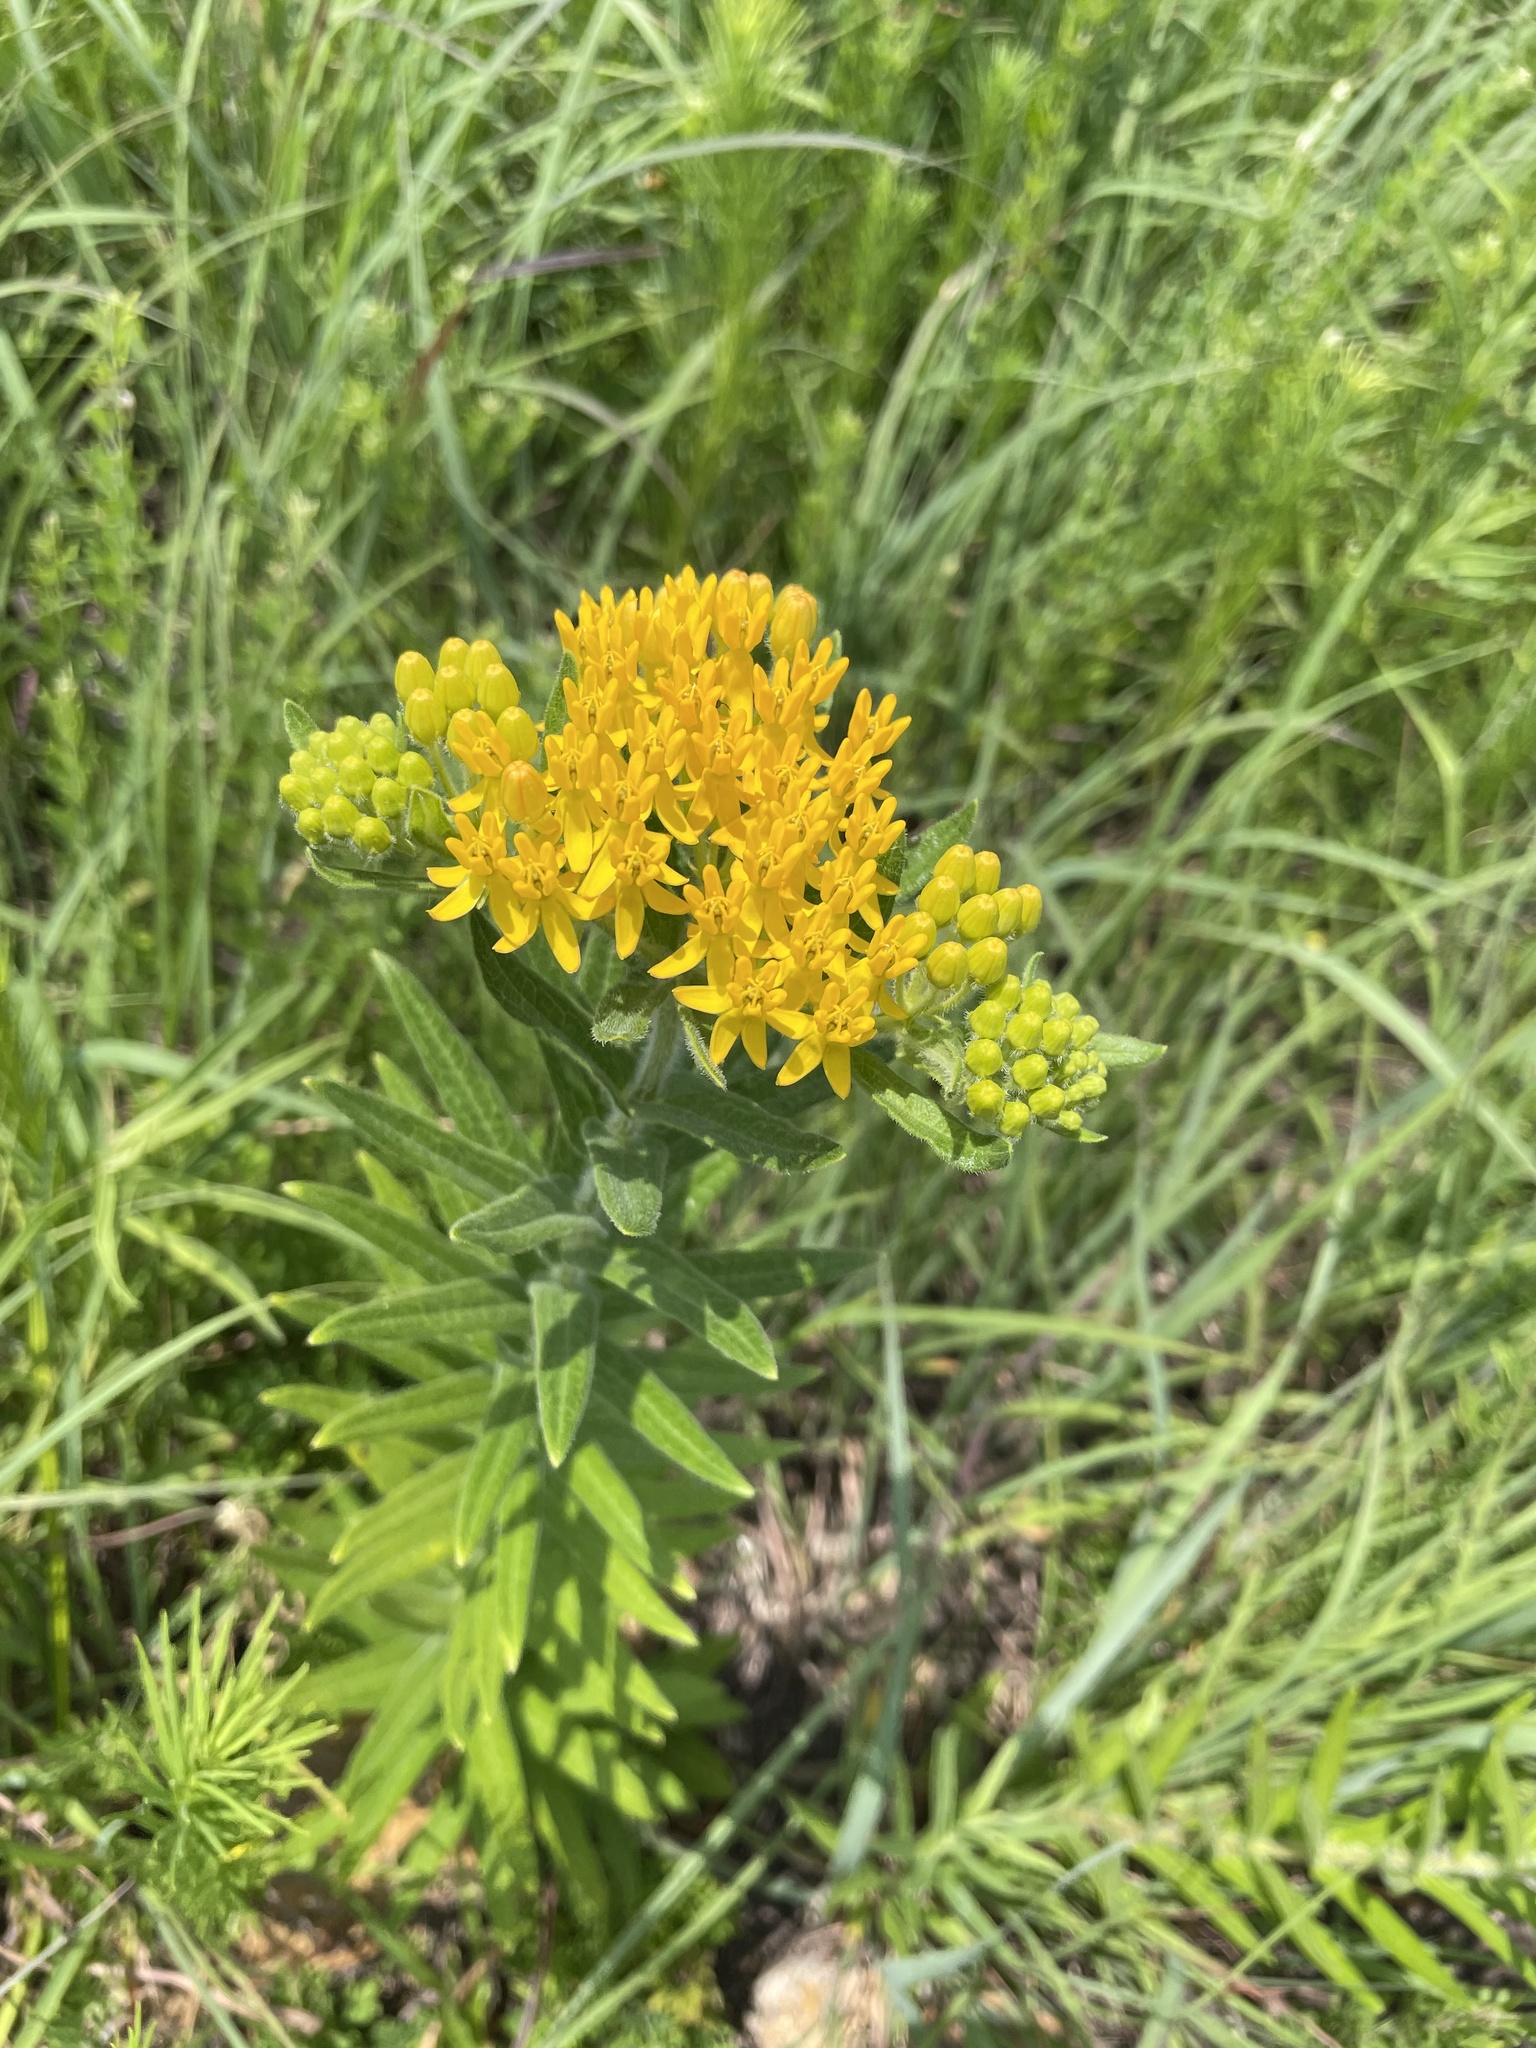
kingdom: Plantae
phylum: Tracheophyta
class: Magnoliopsida
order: Gentianales
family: Apocynaceae
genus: Asclepias
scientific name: Asclepias tuberosa
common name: Butterfly milkweed
